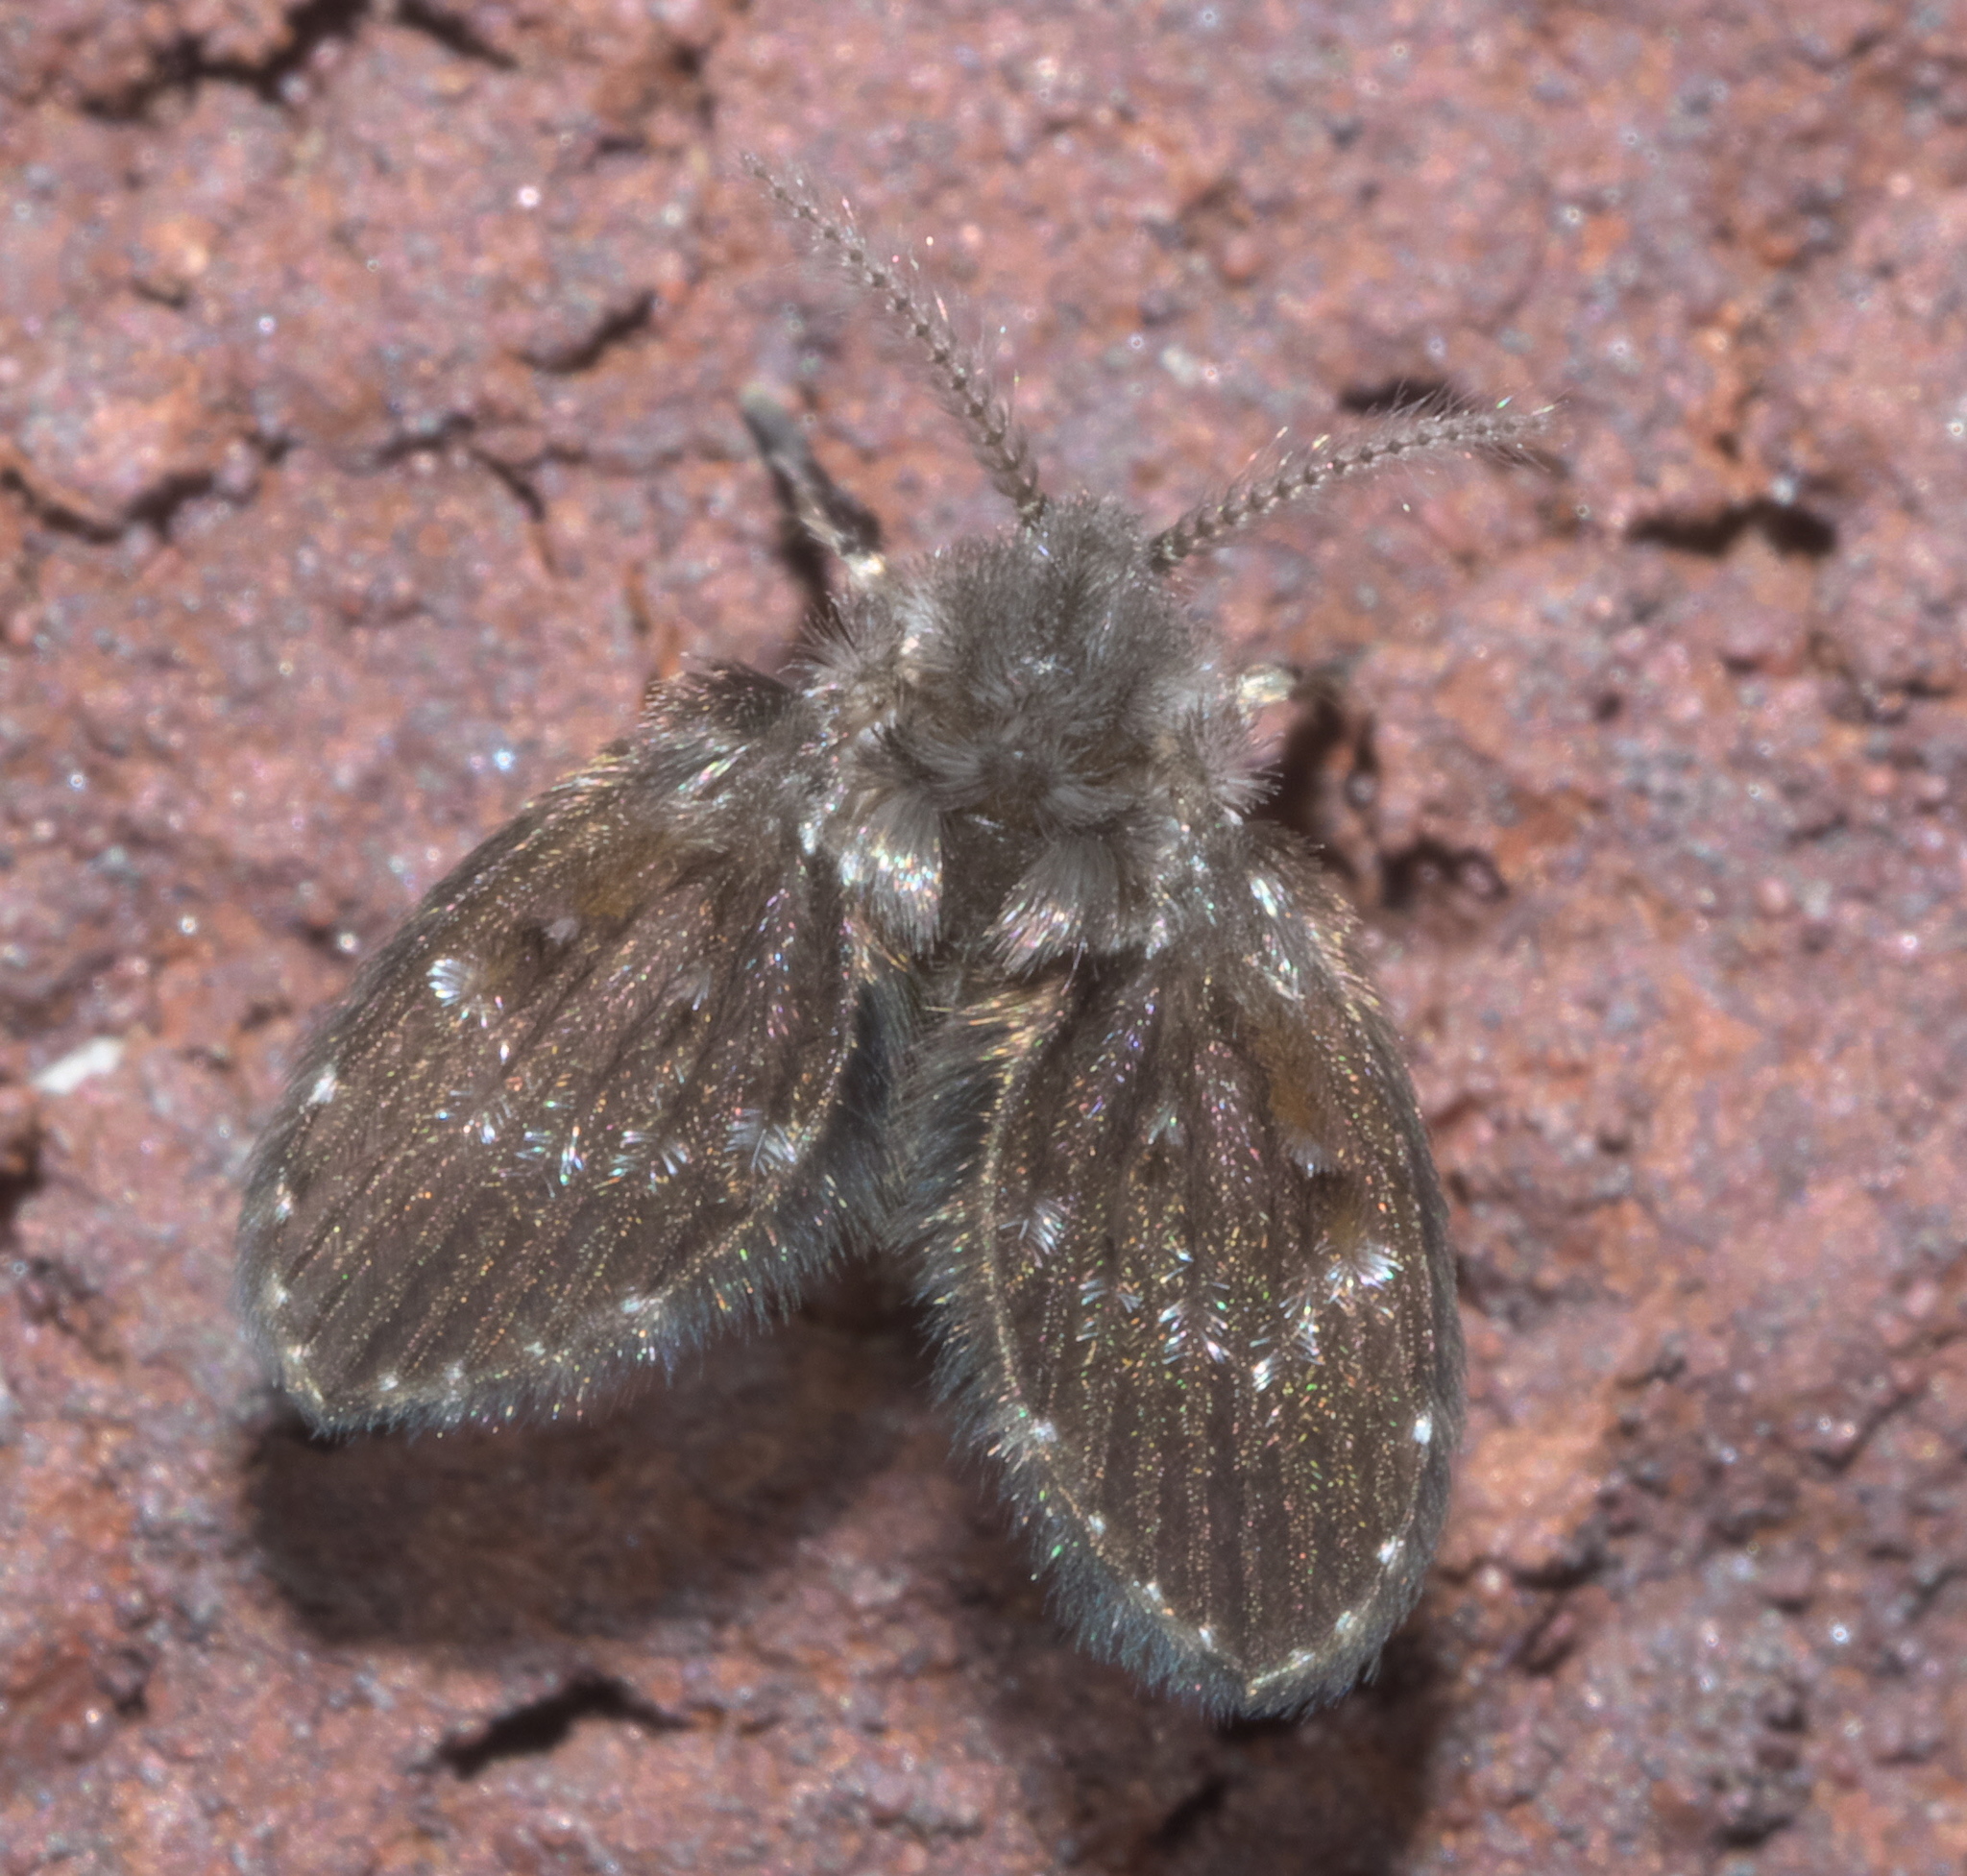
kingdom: Animalia
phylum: Arthropoda
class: Insecta
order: Diptera
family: Psychodidae
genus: Clogmia
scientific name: Clogmia albipunctatus
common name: White-spotted moth fly
